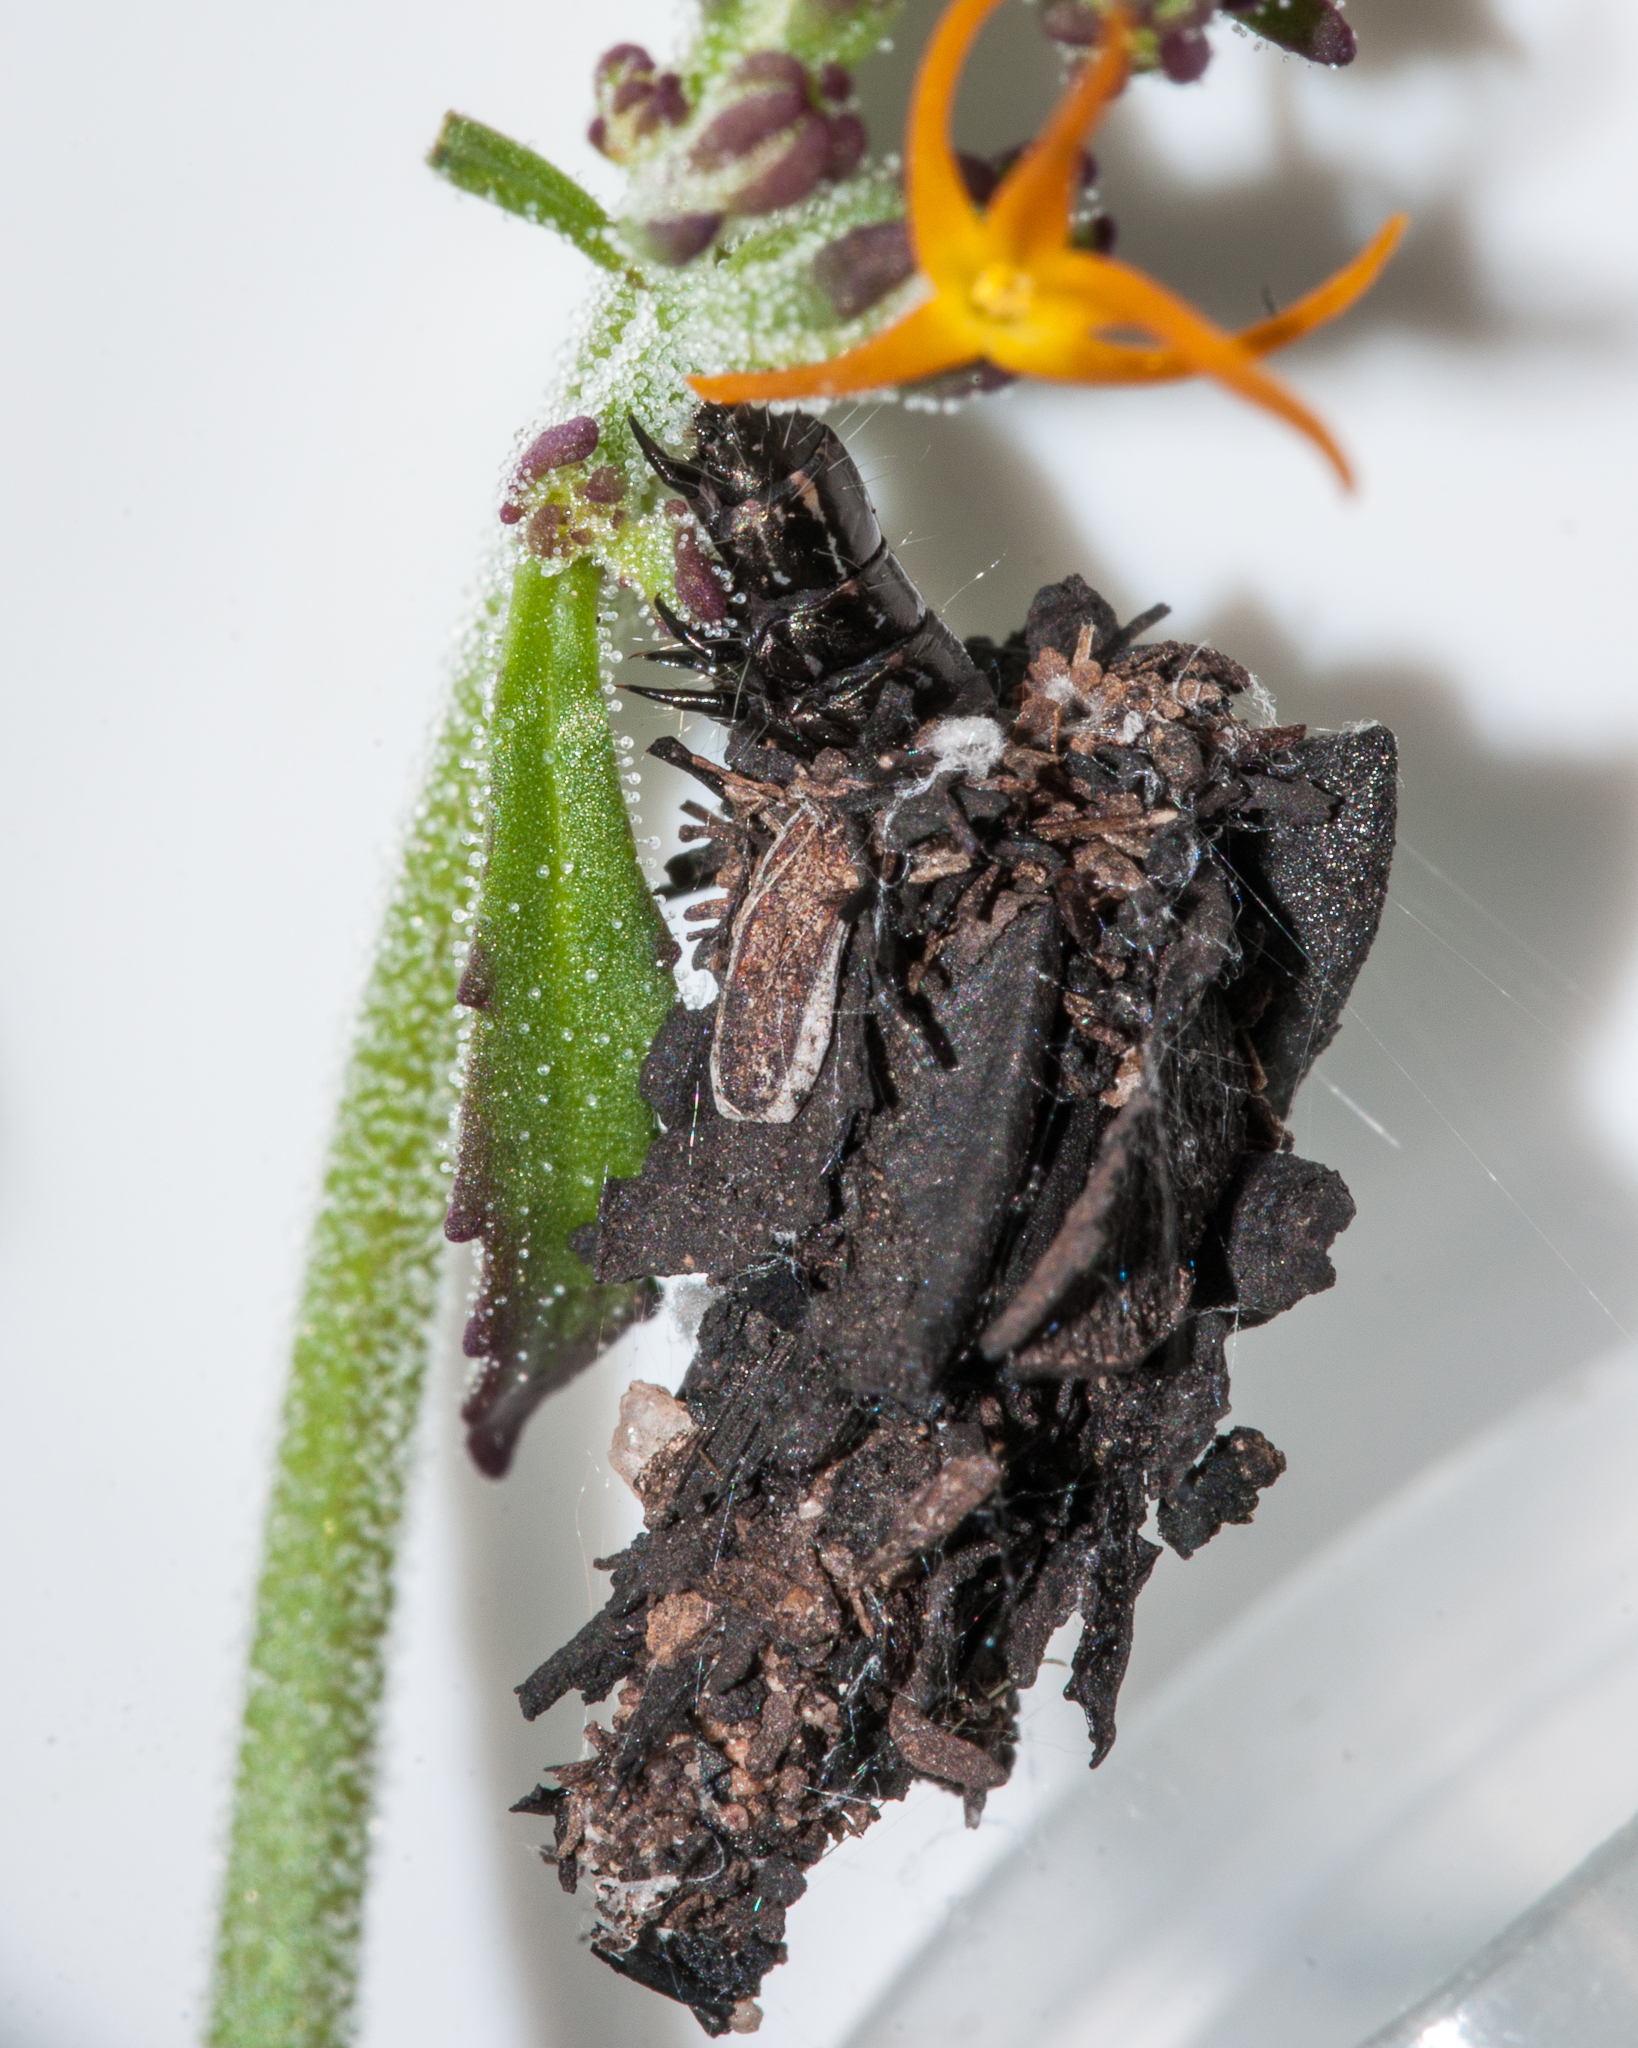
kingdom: Plantae
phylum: Tracheophyta
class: Magnoliopsida
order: Lamiales
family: Scrophulariaceae
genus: Manulea
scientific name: Manulea cheiranthus
